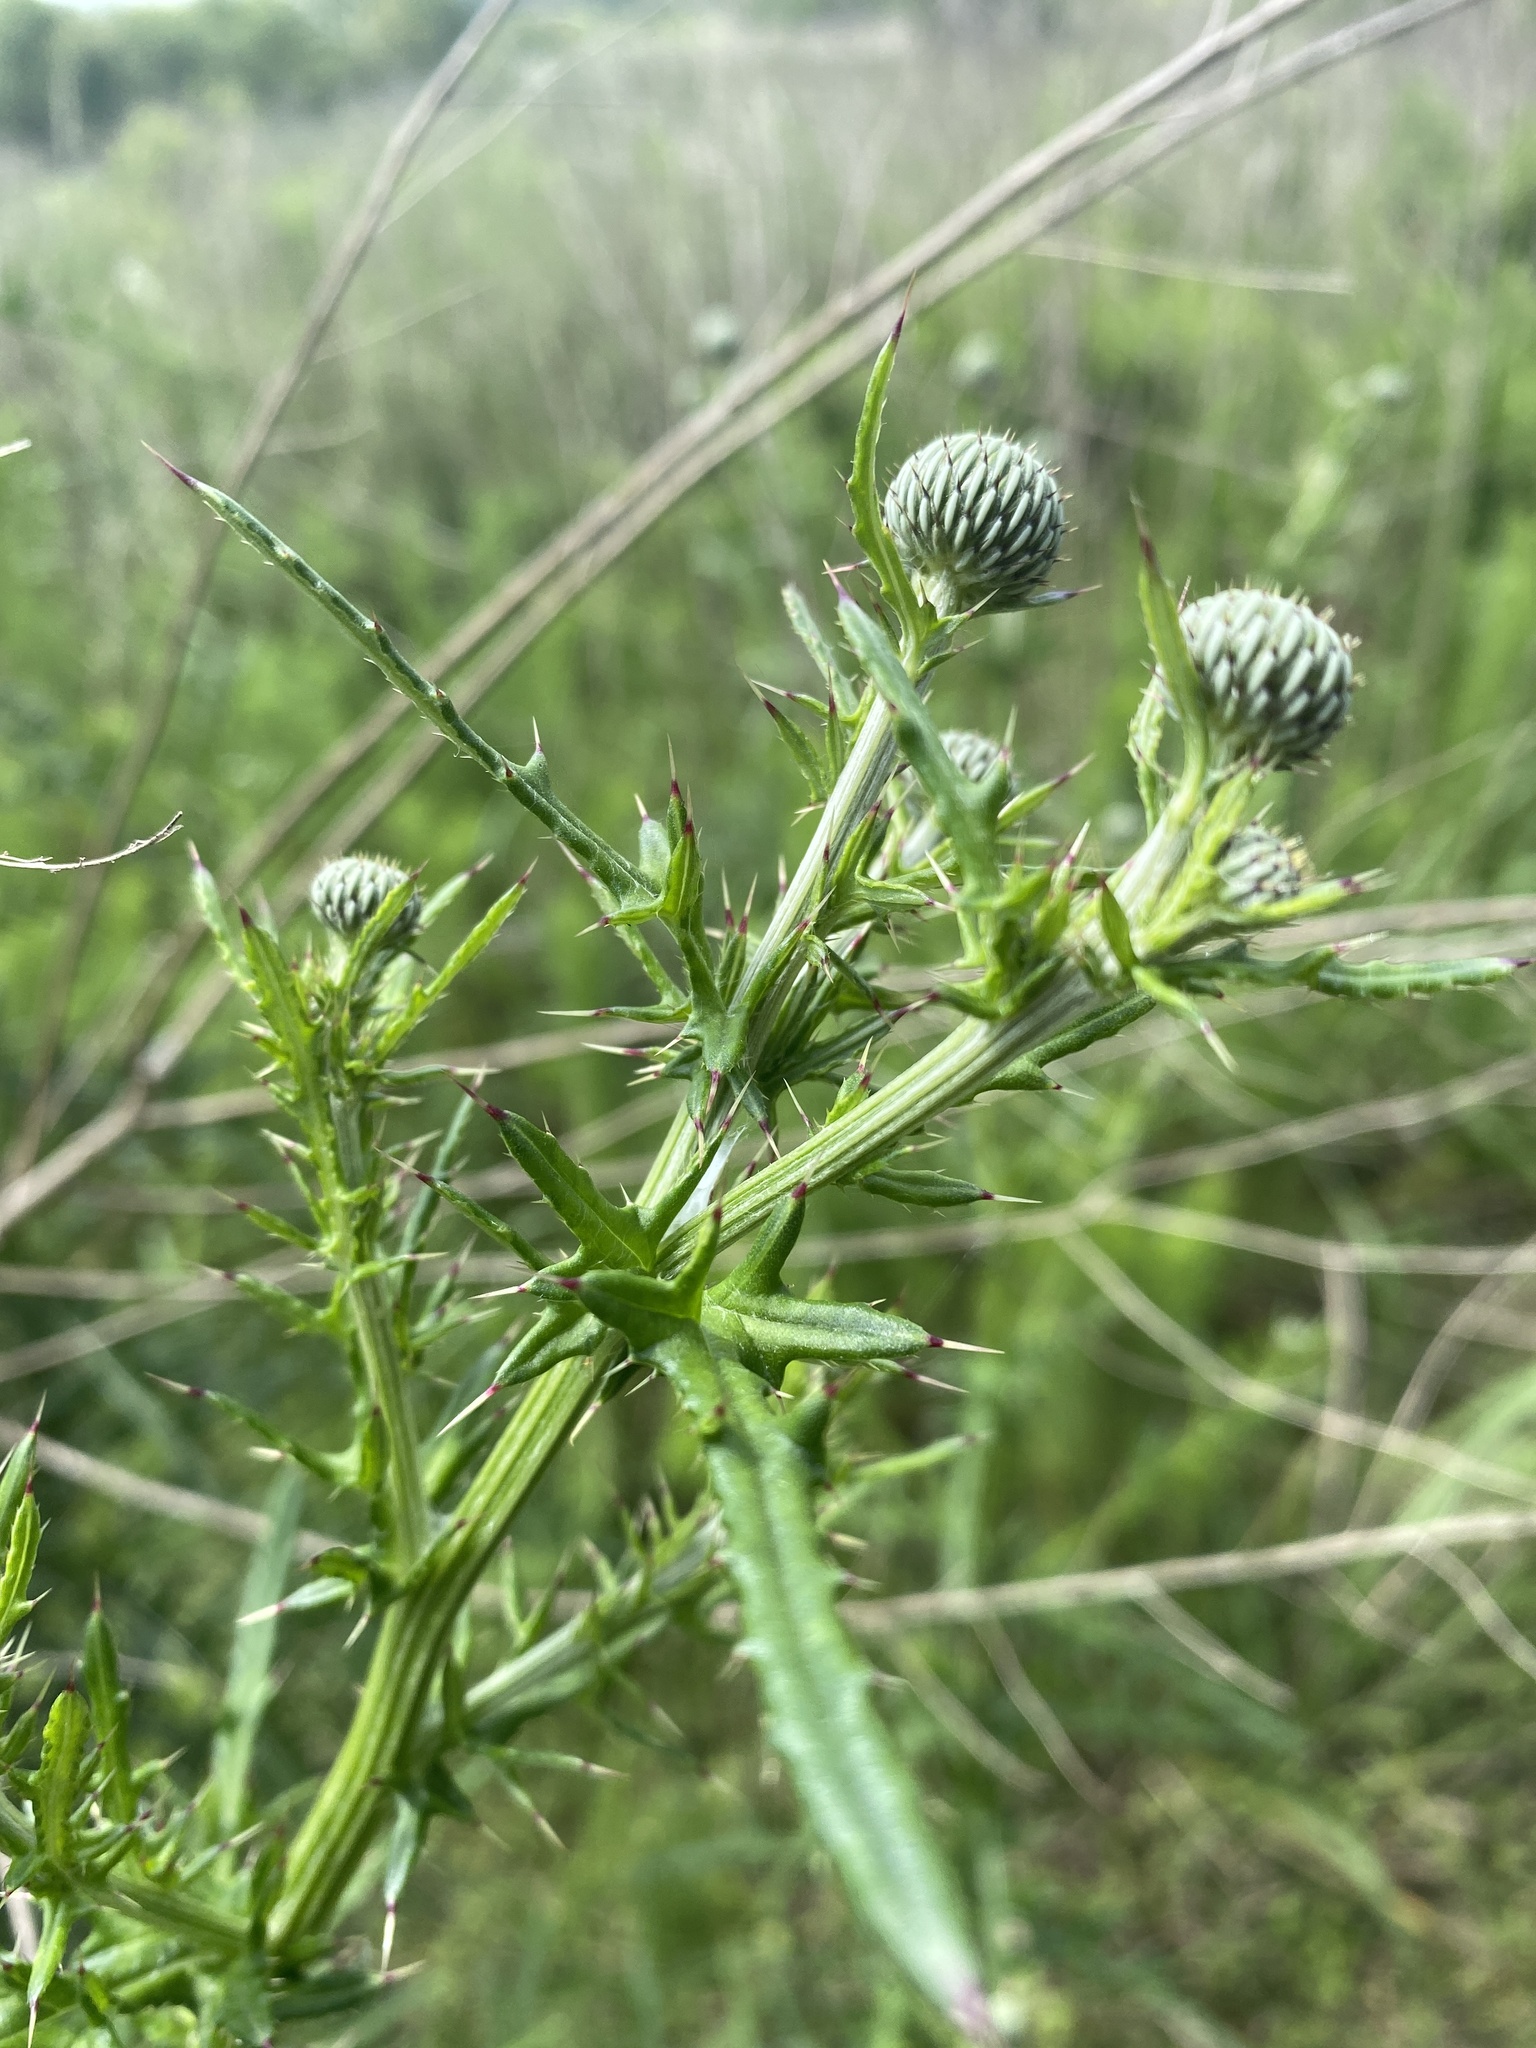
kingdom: Plantae
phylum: Tracheophyta
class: Magnoliopsida
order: Asterales
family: Asteraceae
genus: Cirsium
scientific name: Cirsium nuttalii
